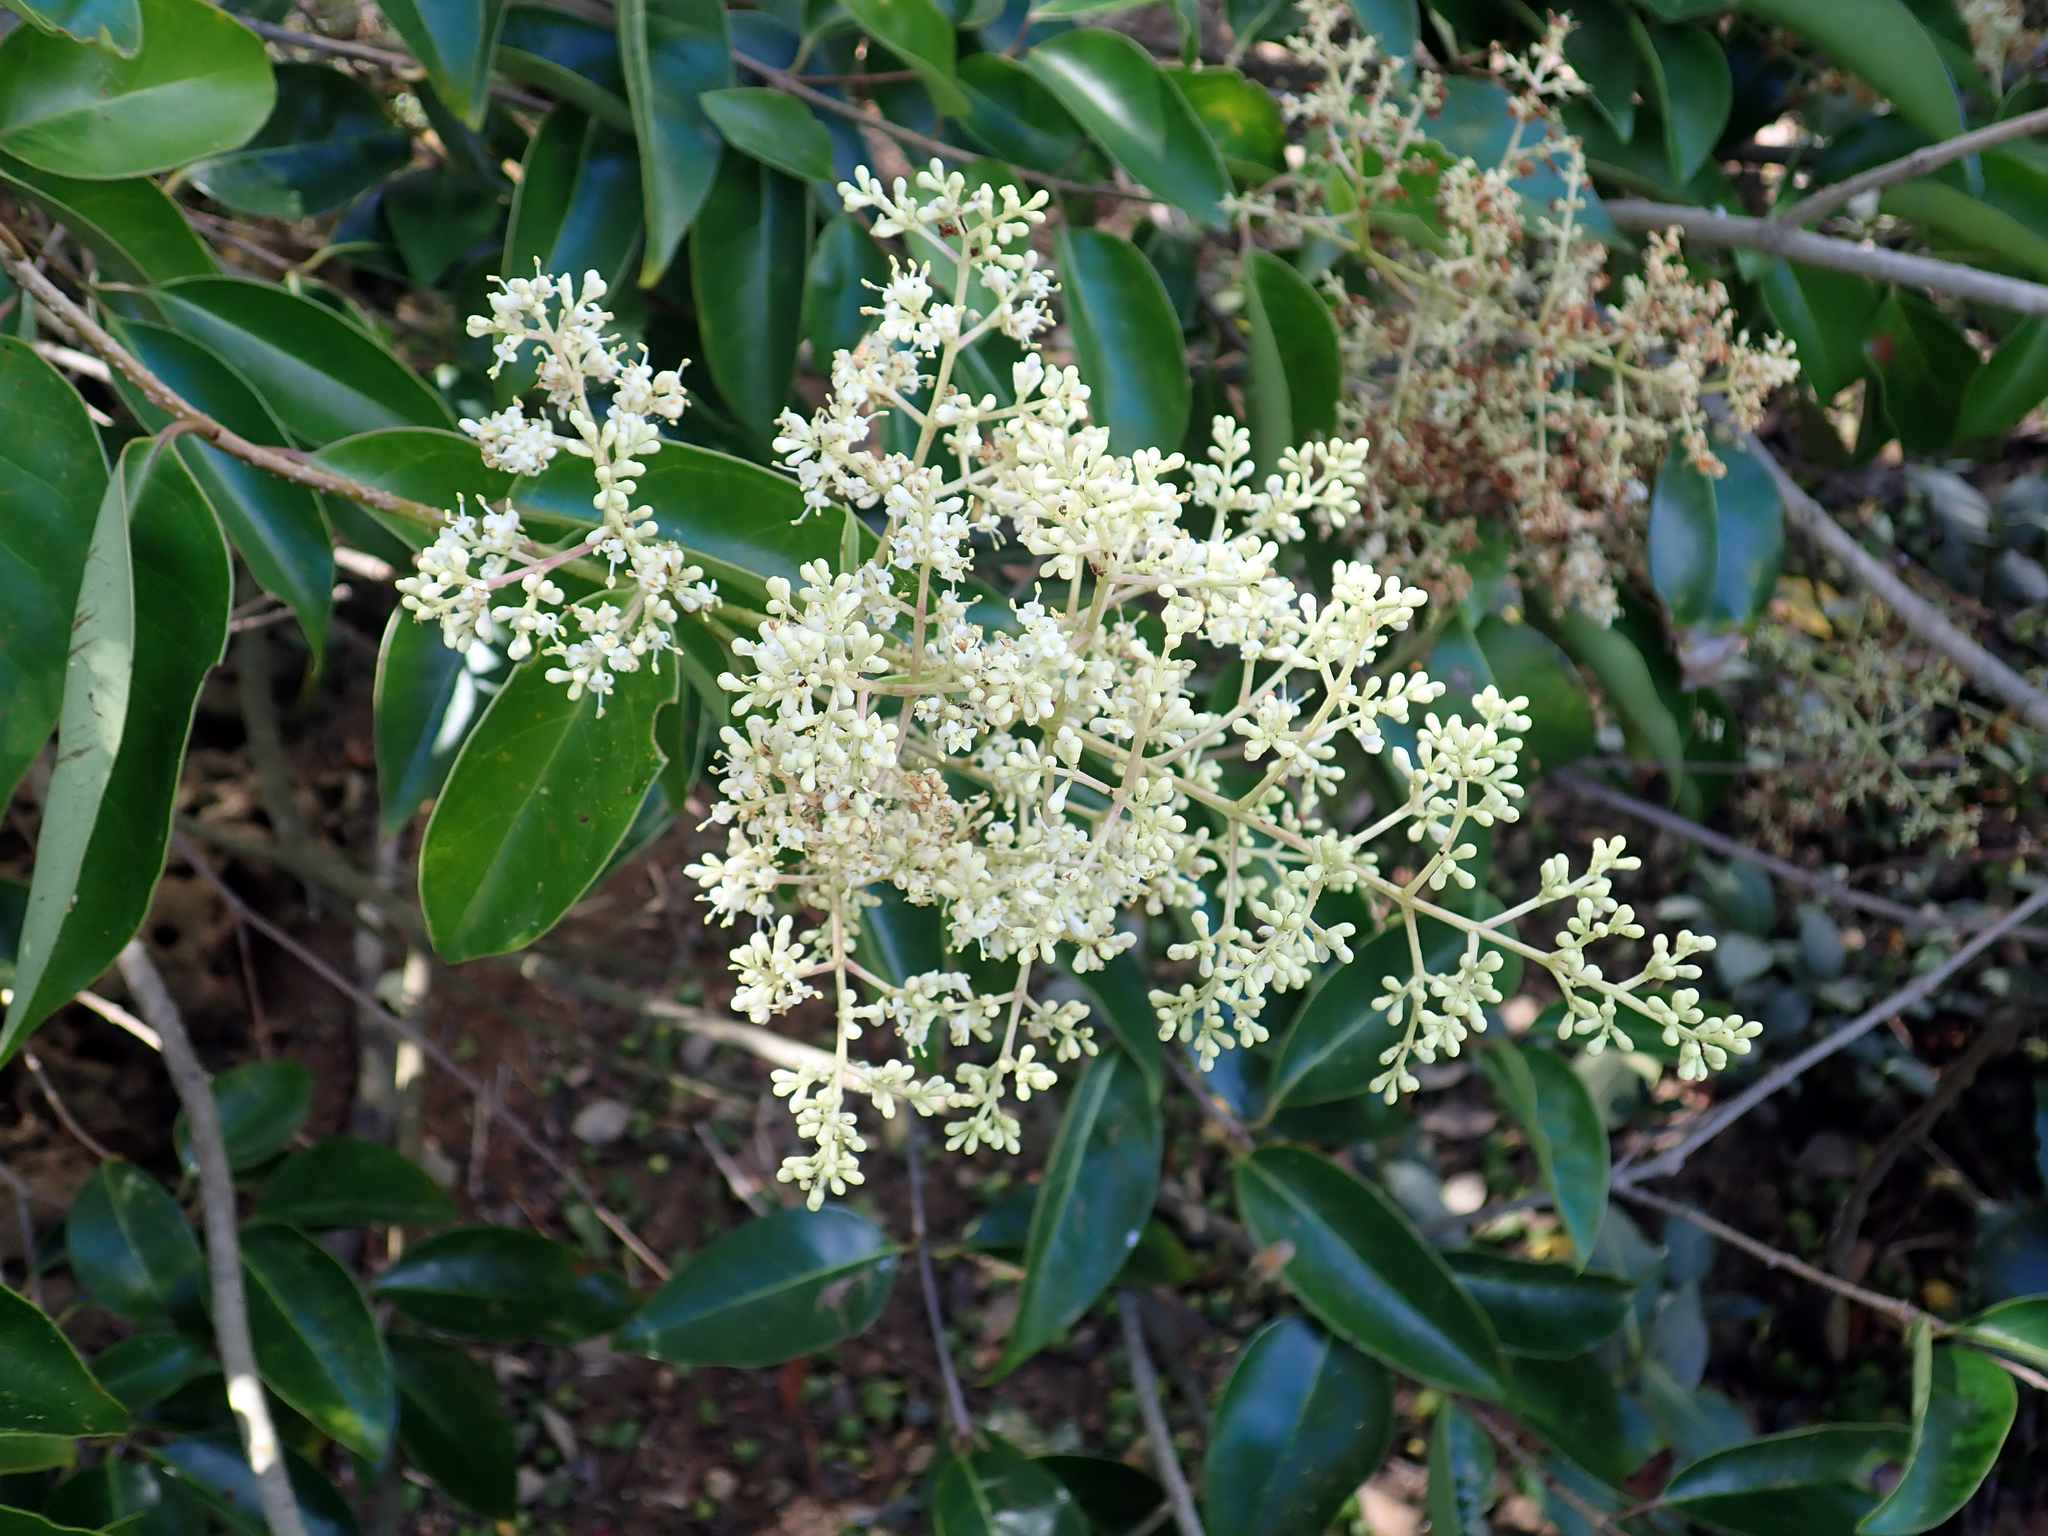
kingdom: Plantae
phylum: Tracheophyta
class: Magnoliopsida
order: Lamiales
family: Oleaceae
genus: Ligustrum
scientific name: Ligustrum lucidum
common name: Glossy privet
